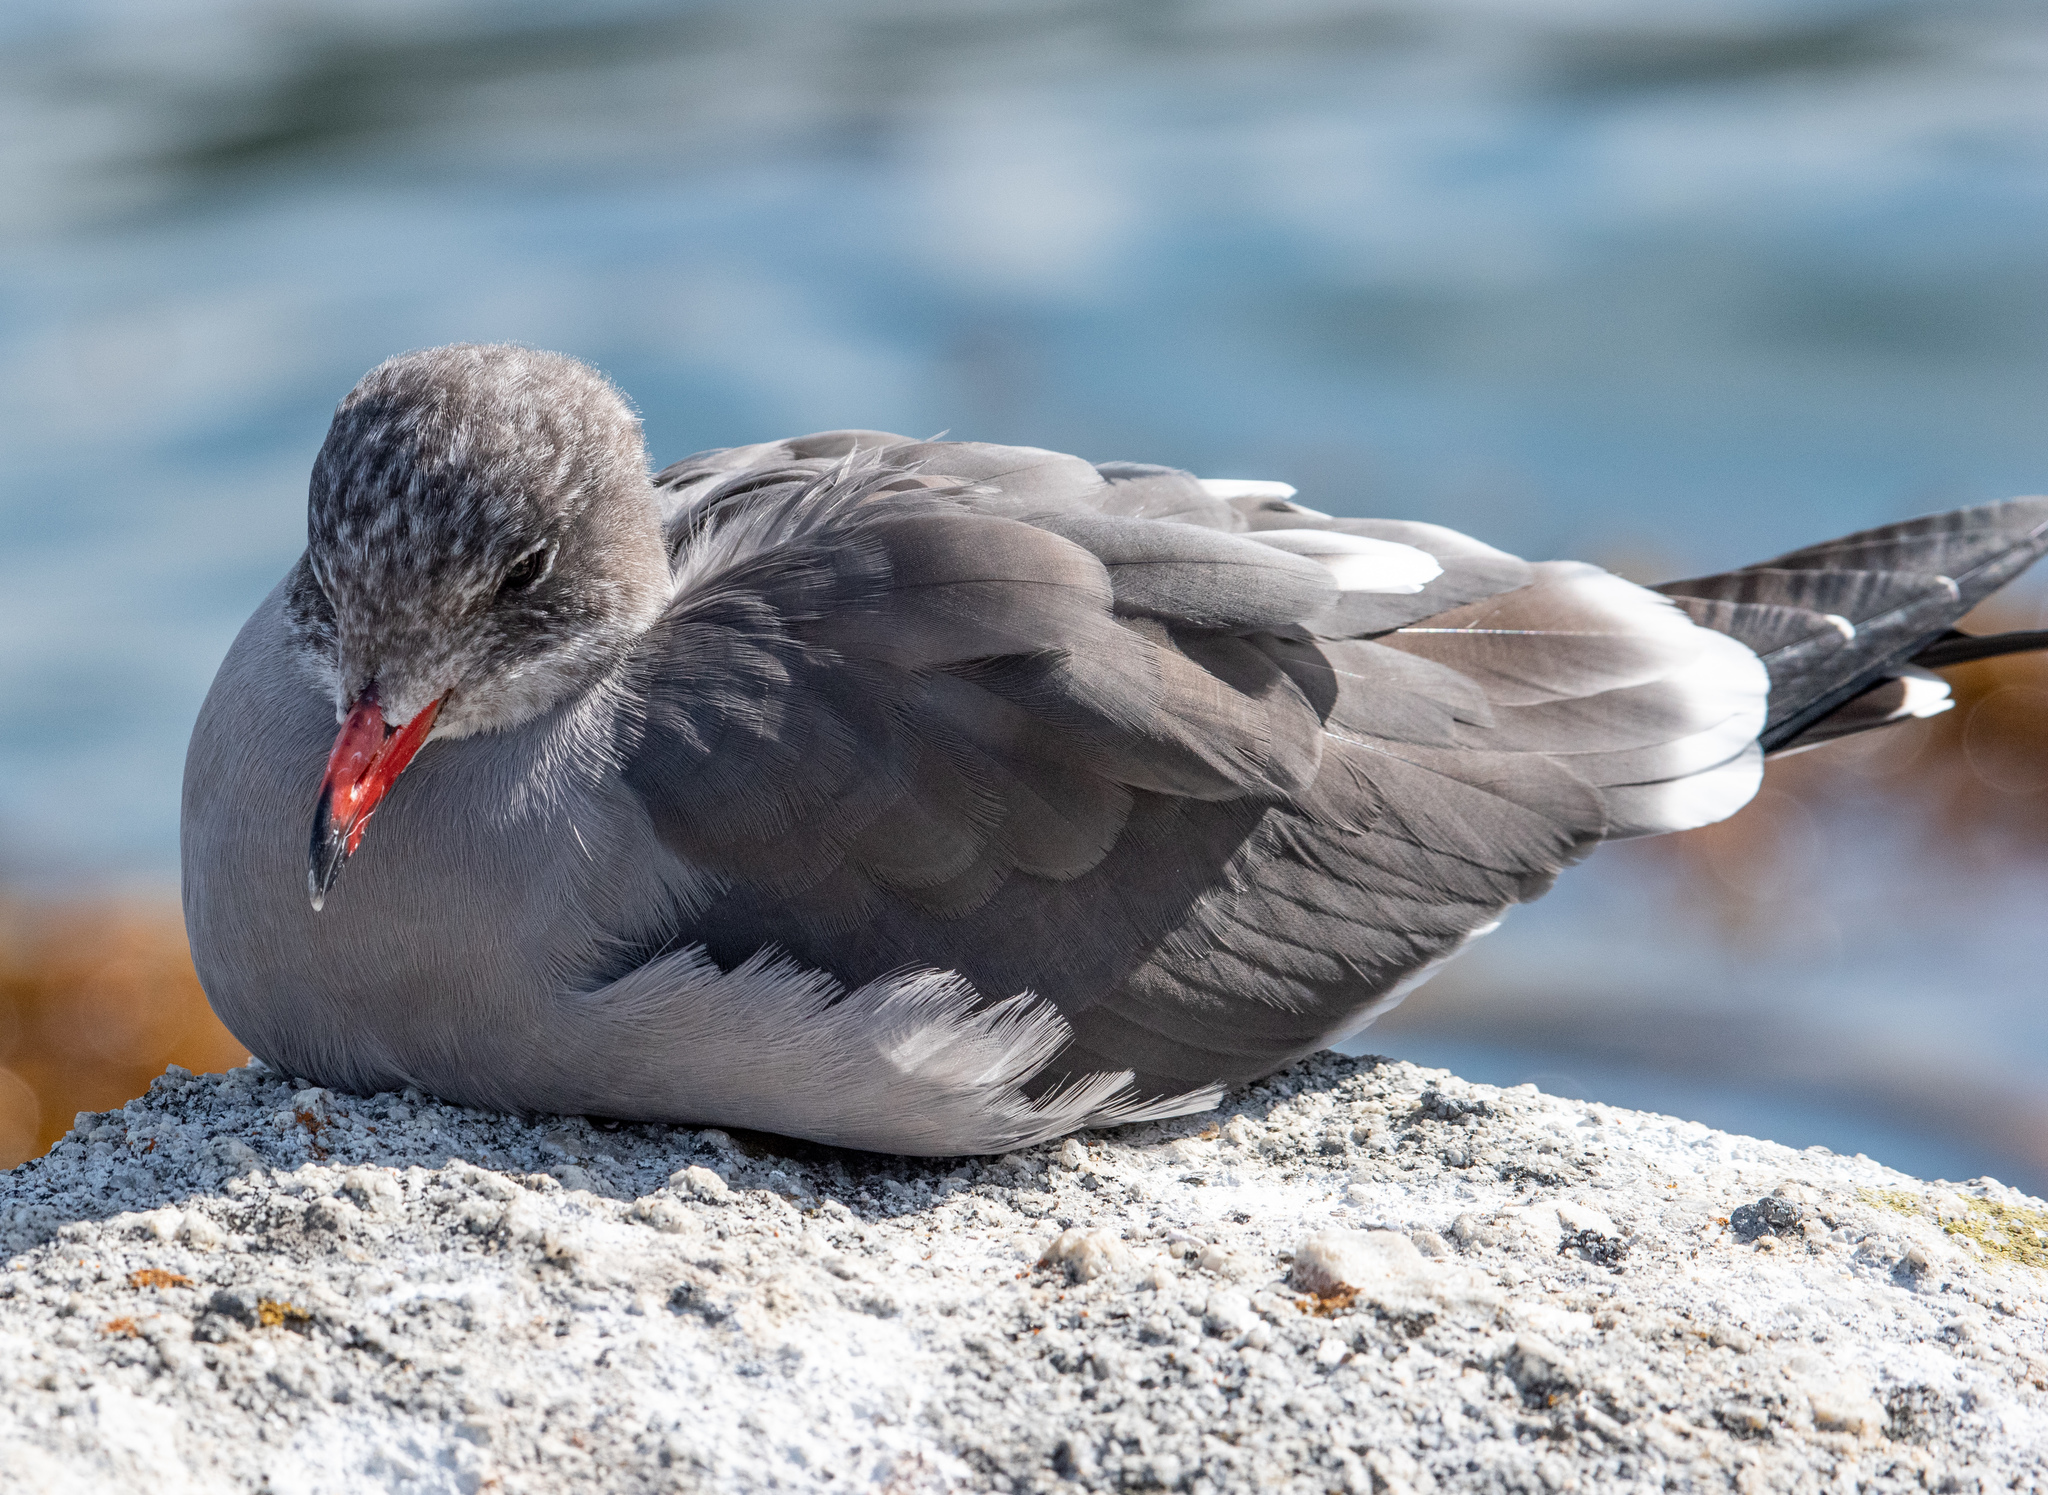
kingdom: Animalia
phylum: Chordata
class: Aves
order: Charadriiformes
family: Laridae
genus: Larus
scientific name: Larus heermanni
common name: Heermann's gull
